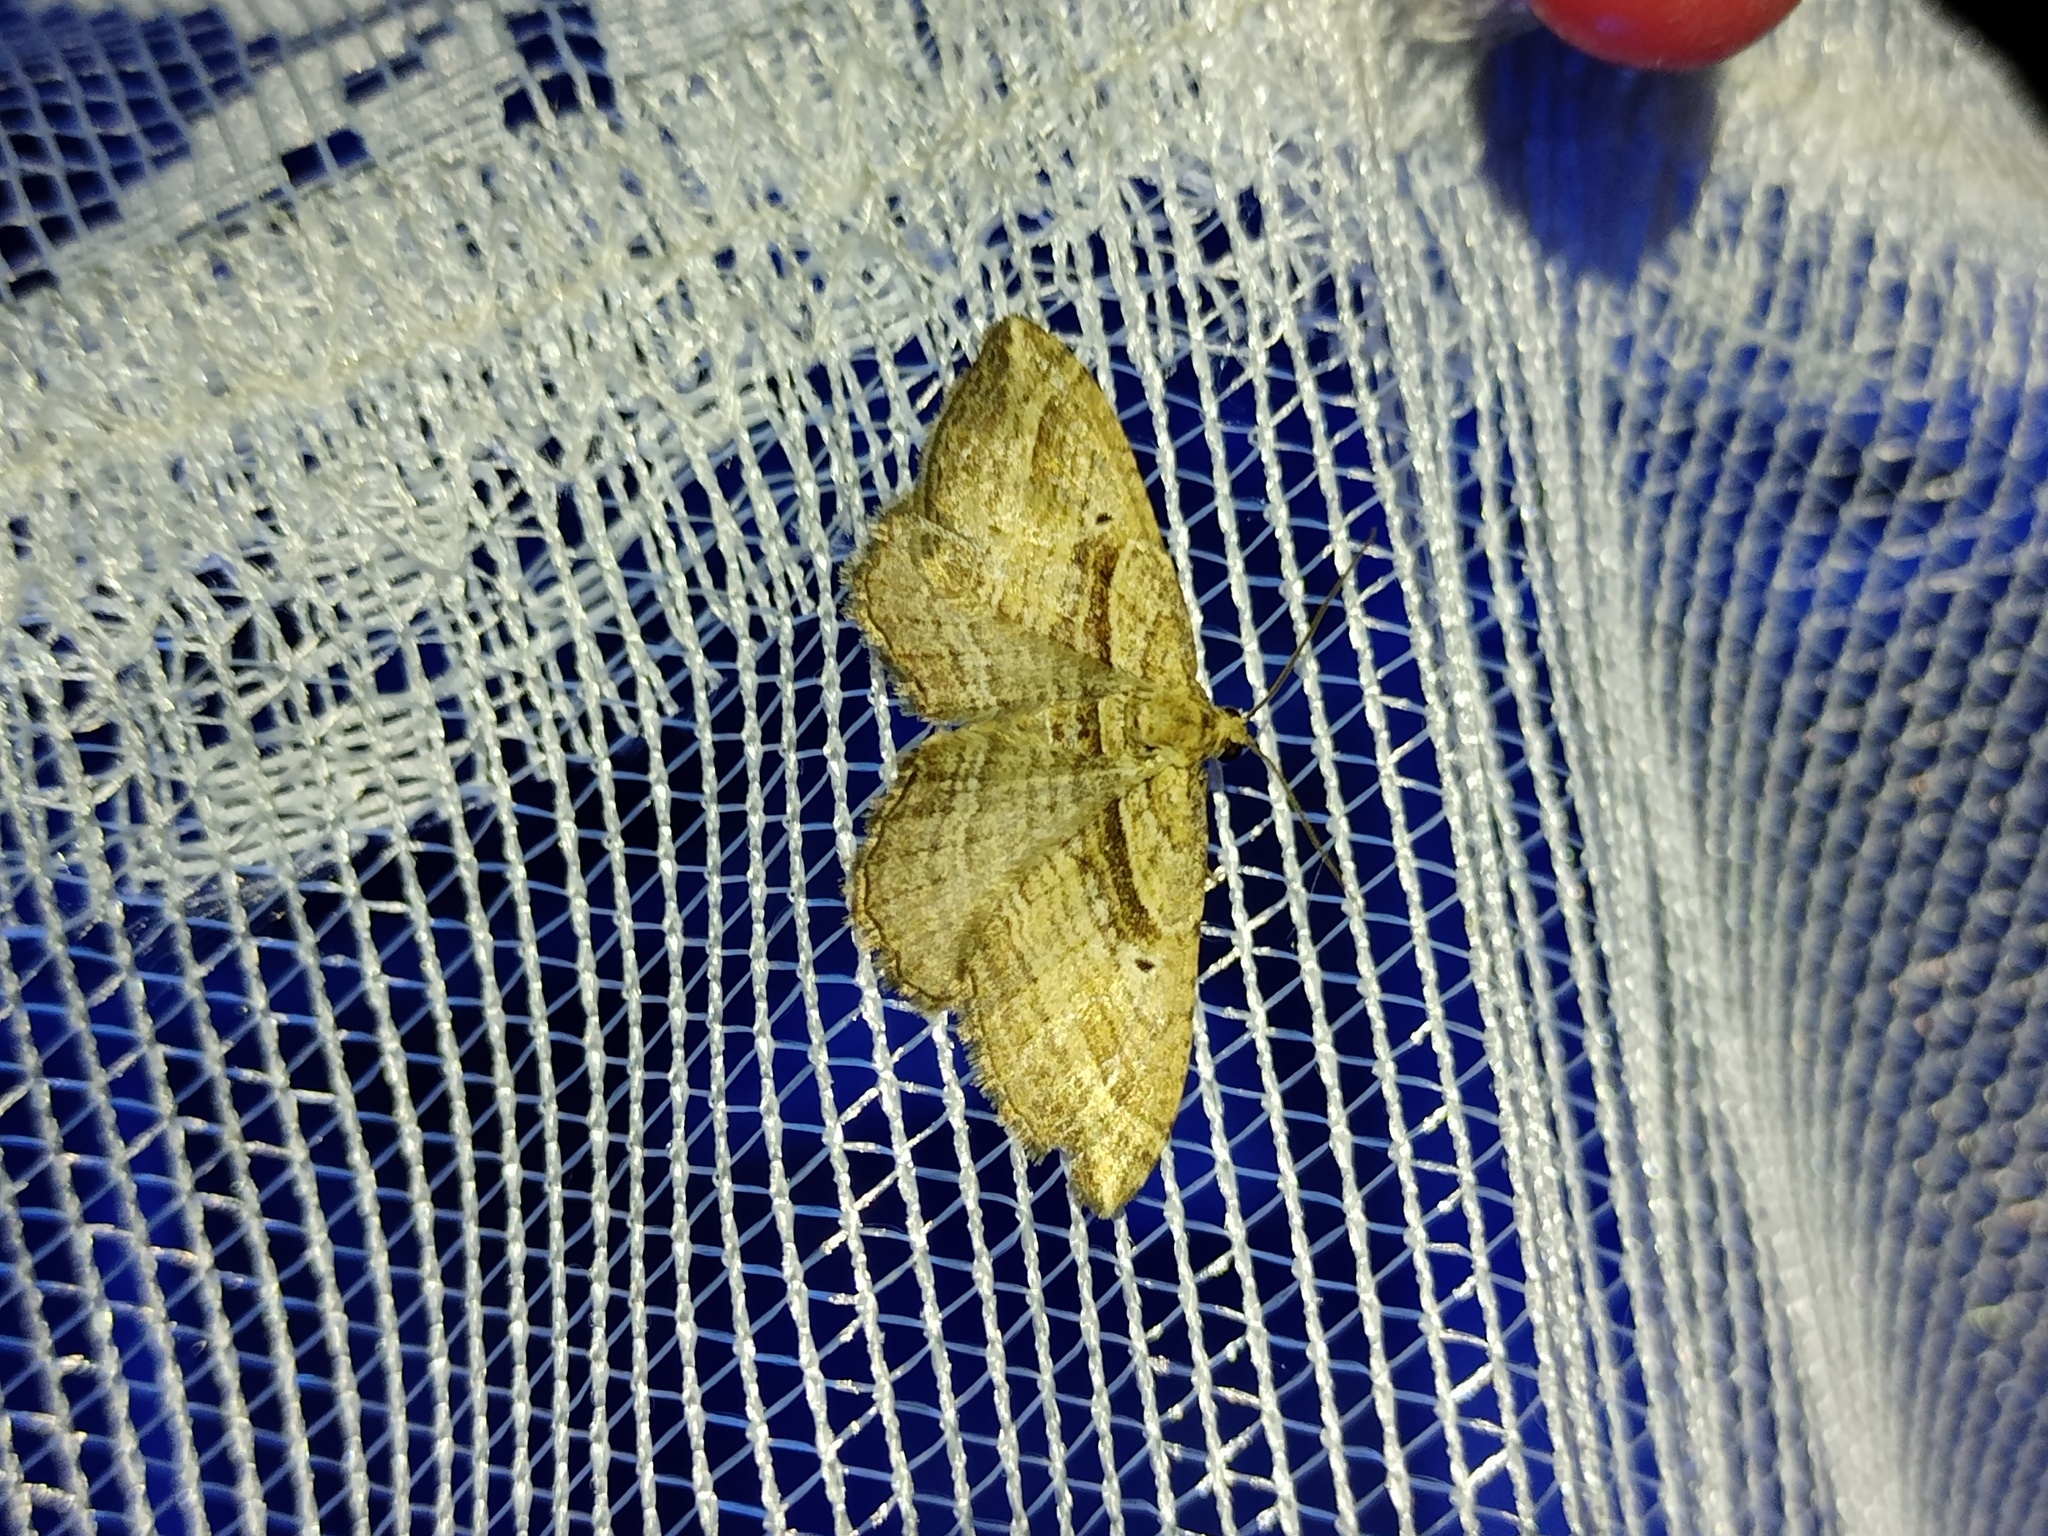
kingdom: Animalia
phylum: Arthropoda
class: Insecta
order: Lepidoptera
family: Geometridae
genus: Costaconvexa
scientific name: Costaconvexa polygrammata
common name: Many-lined
